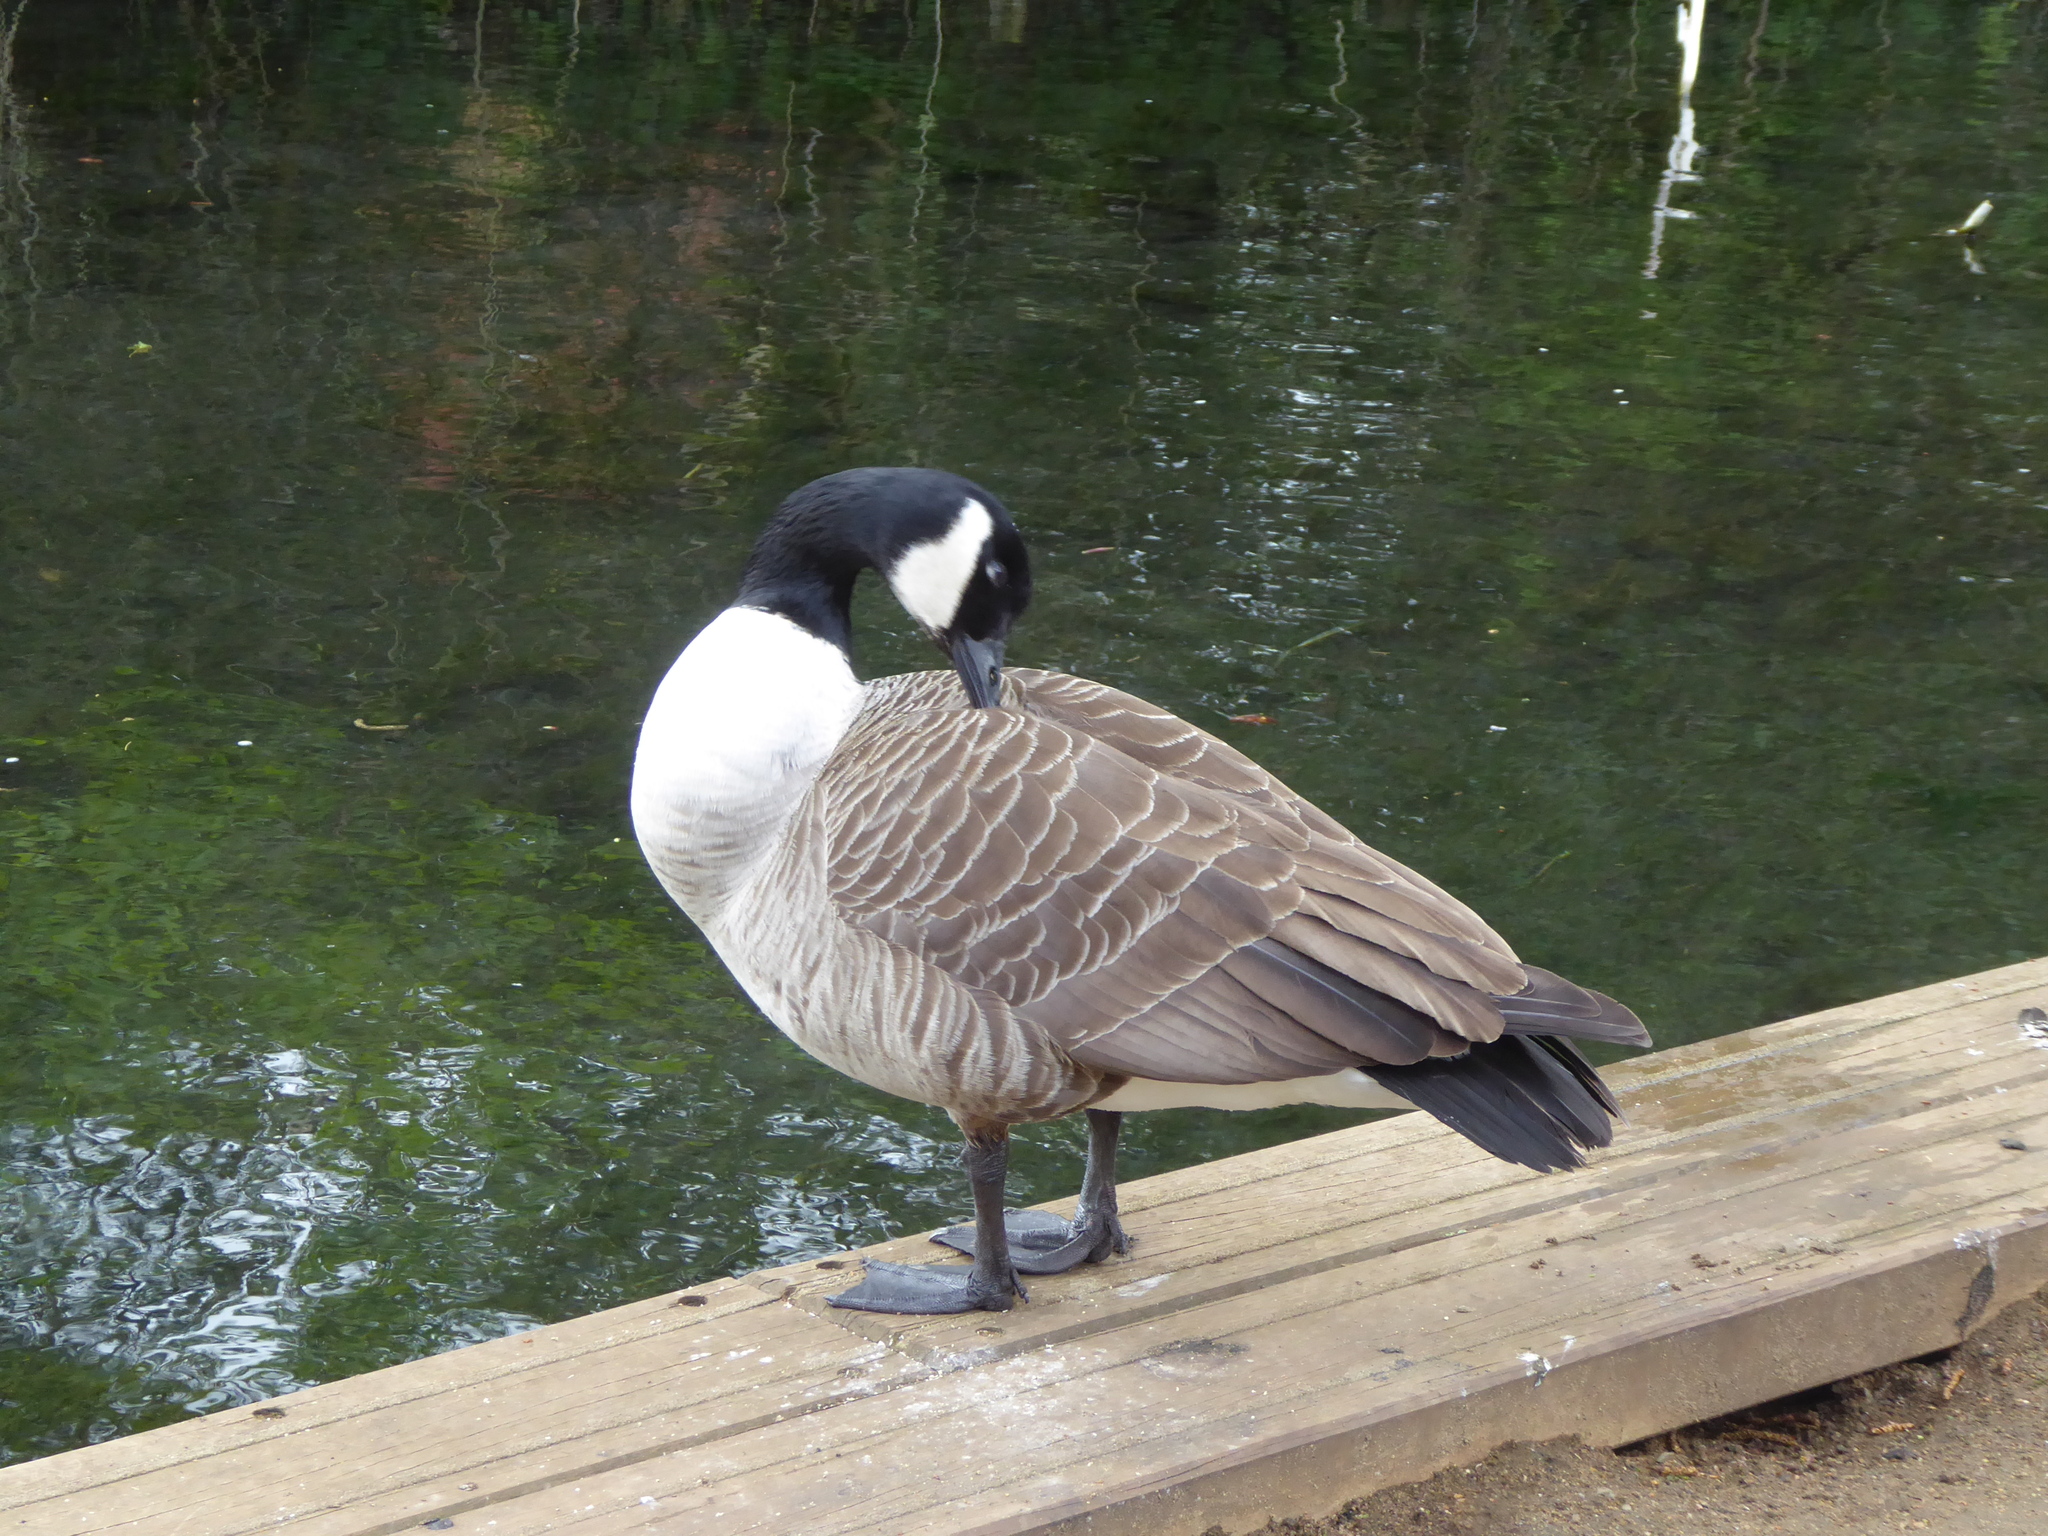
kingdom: Animalia
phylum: Chordata
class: Aves
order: Anseriformes
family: Anatidae
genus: Branta
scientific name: Branta canadensis
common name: Canada goose
